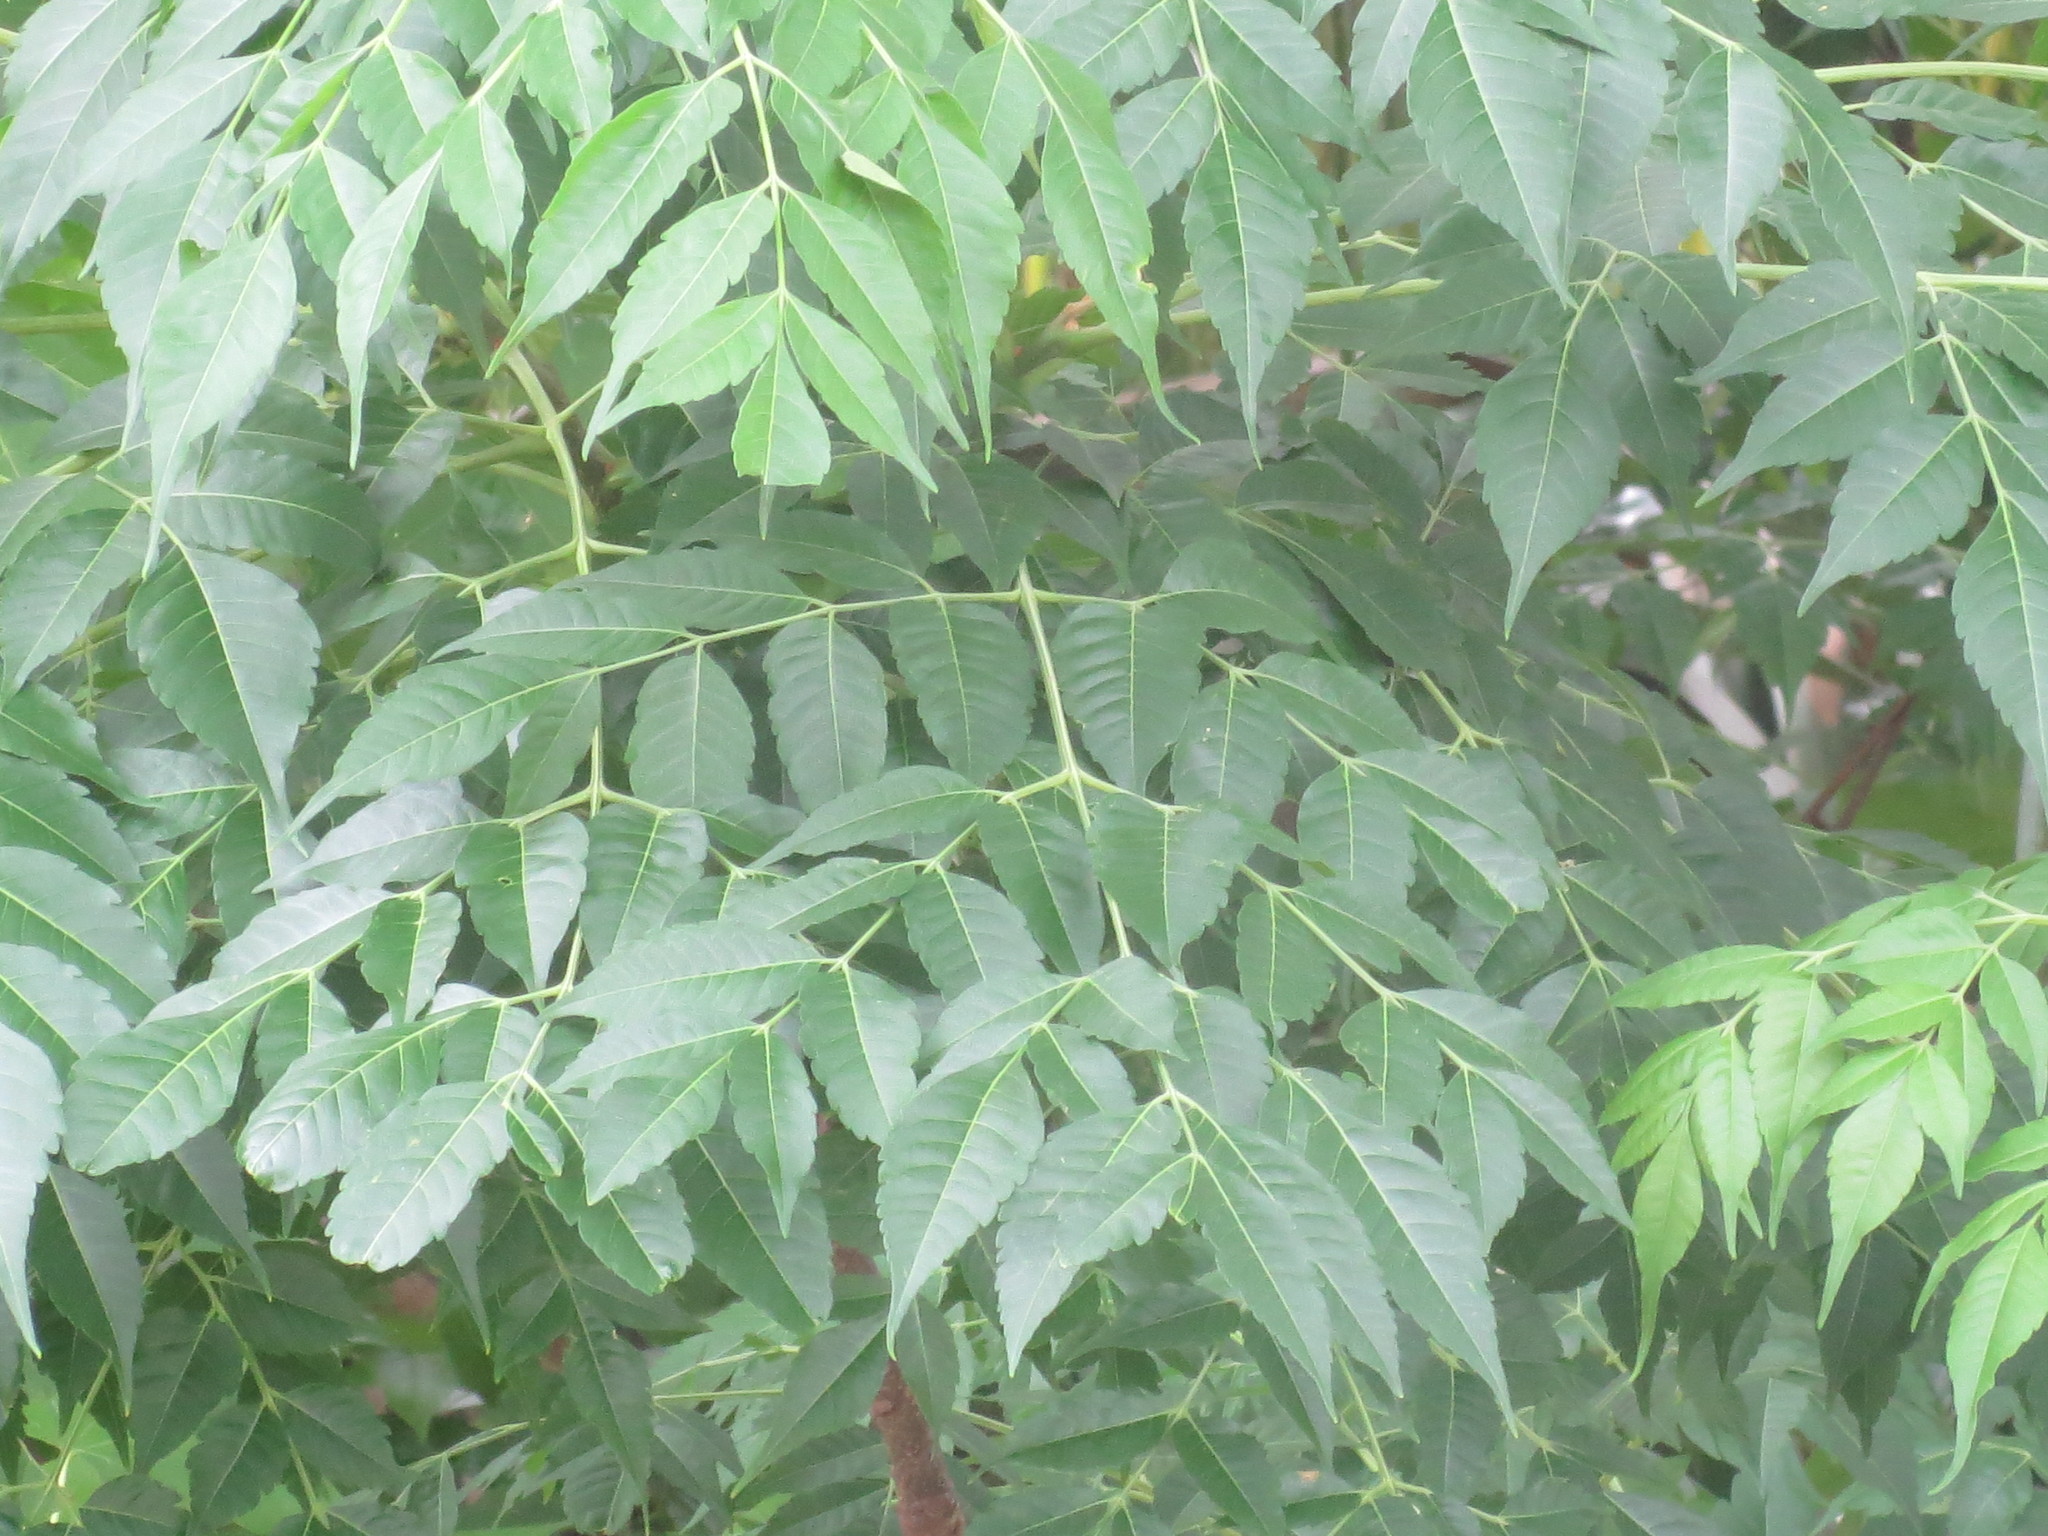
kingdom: Plantae
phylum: Tracheophyta
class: Magnoliopsida
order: Sapindales
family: Meliaceae
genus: Melia
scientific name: Melia azedarach
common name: Chinaberrytree
